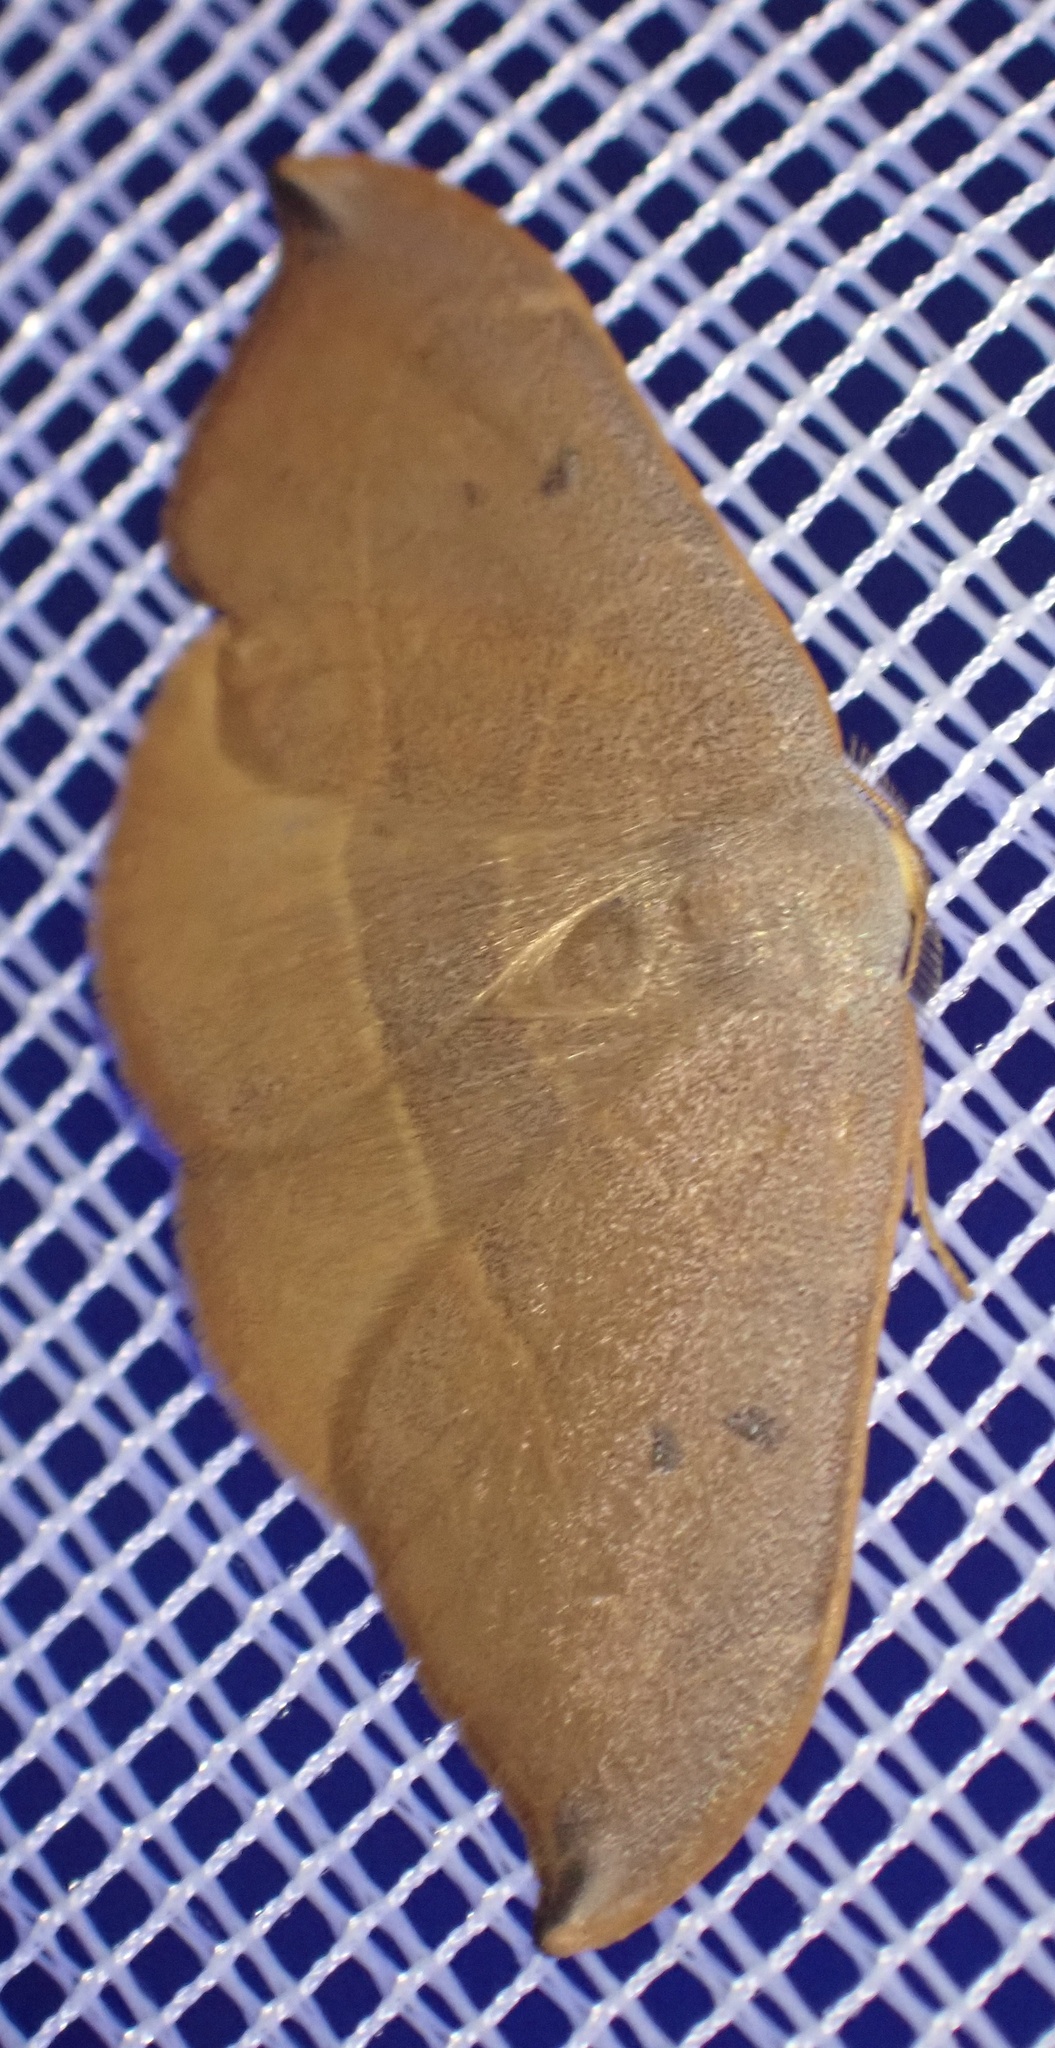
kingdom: Animalia
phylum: Arthropoda
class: Insecta
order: Lepidoptera
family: Drepanidae
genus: Watsonalla
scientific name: Watsonalla uncinula
